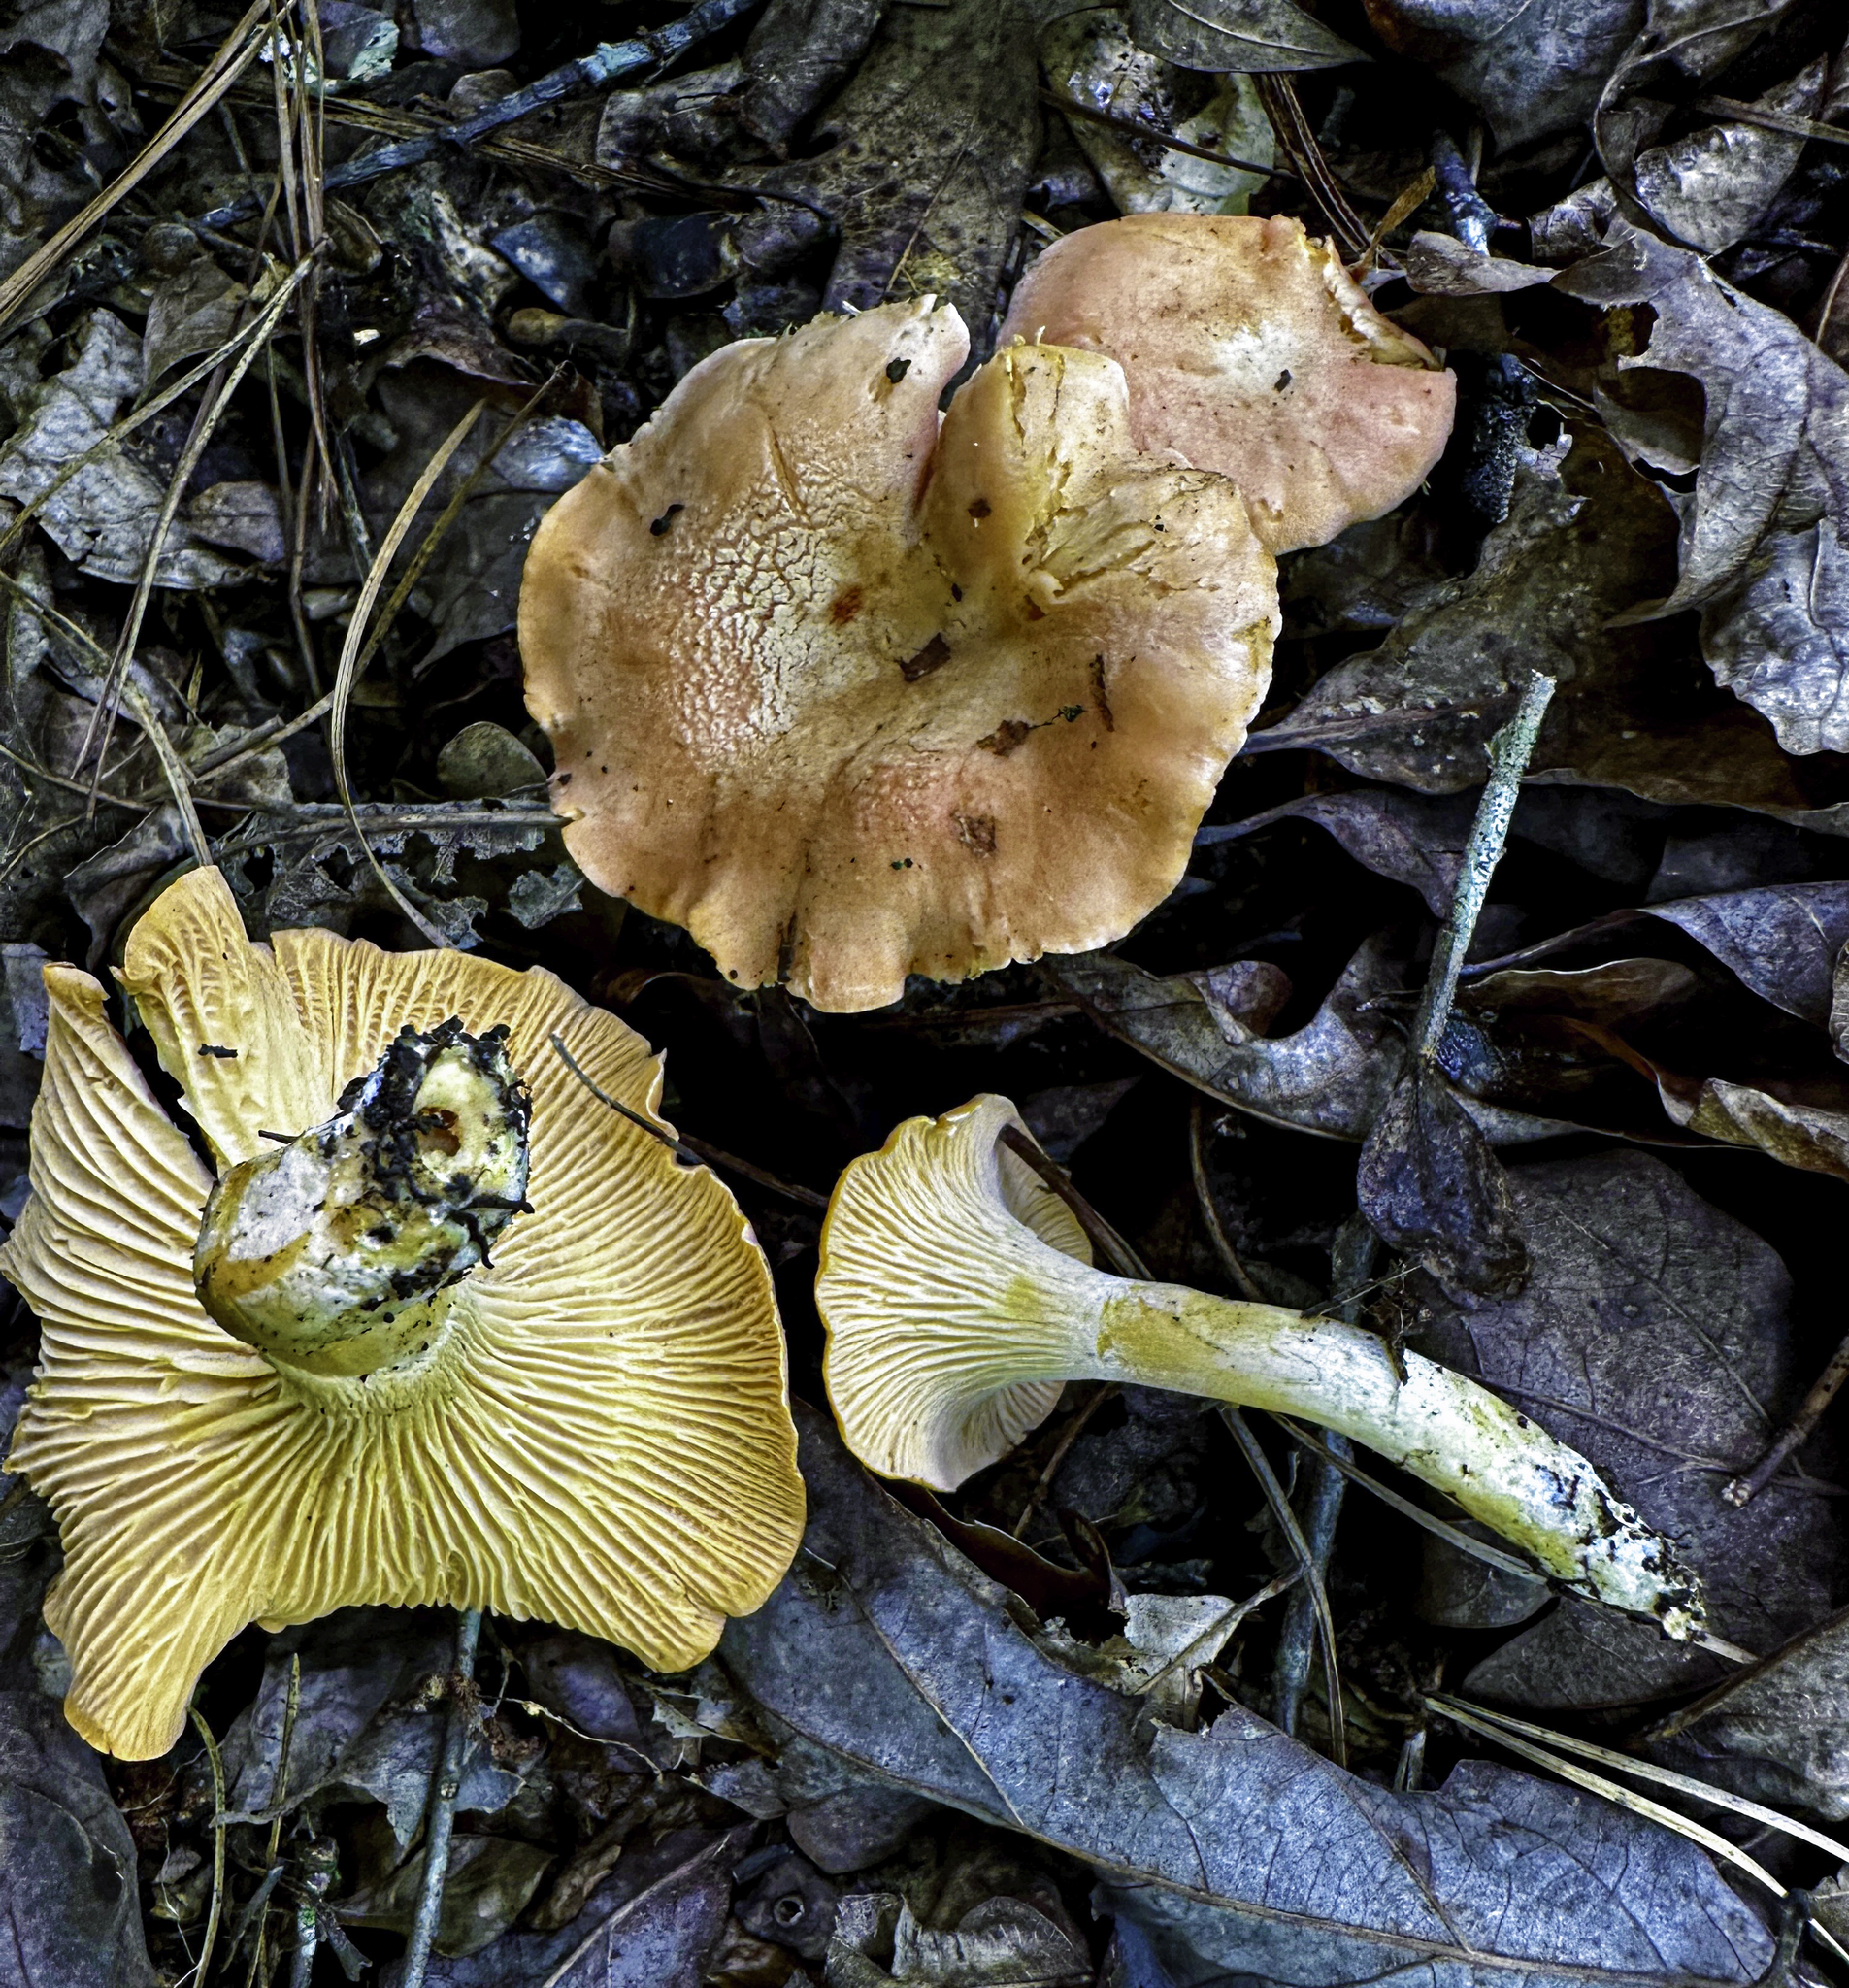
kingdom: Fungi
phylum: Basidiomycota
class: Agaricomycetes
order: Cantharellales
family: Hydnaceae
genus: Cantharellus
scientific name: Cantharellus velutinus
